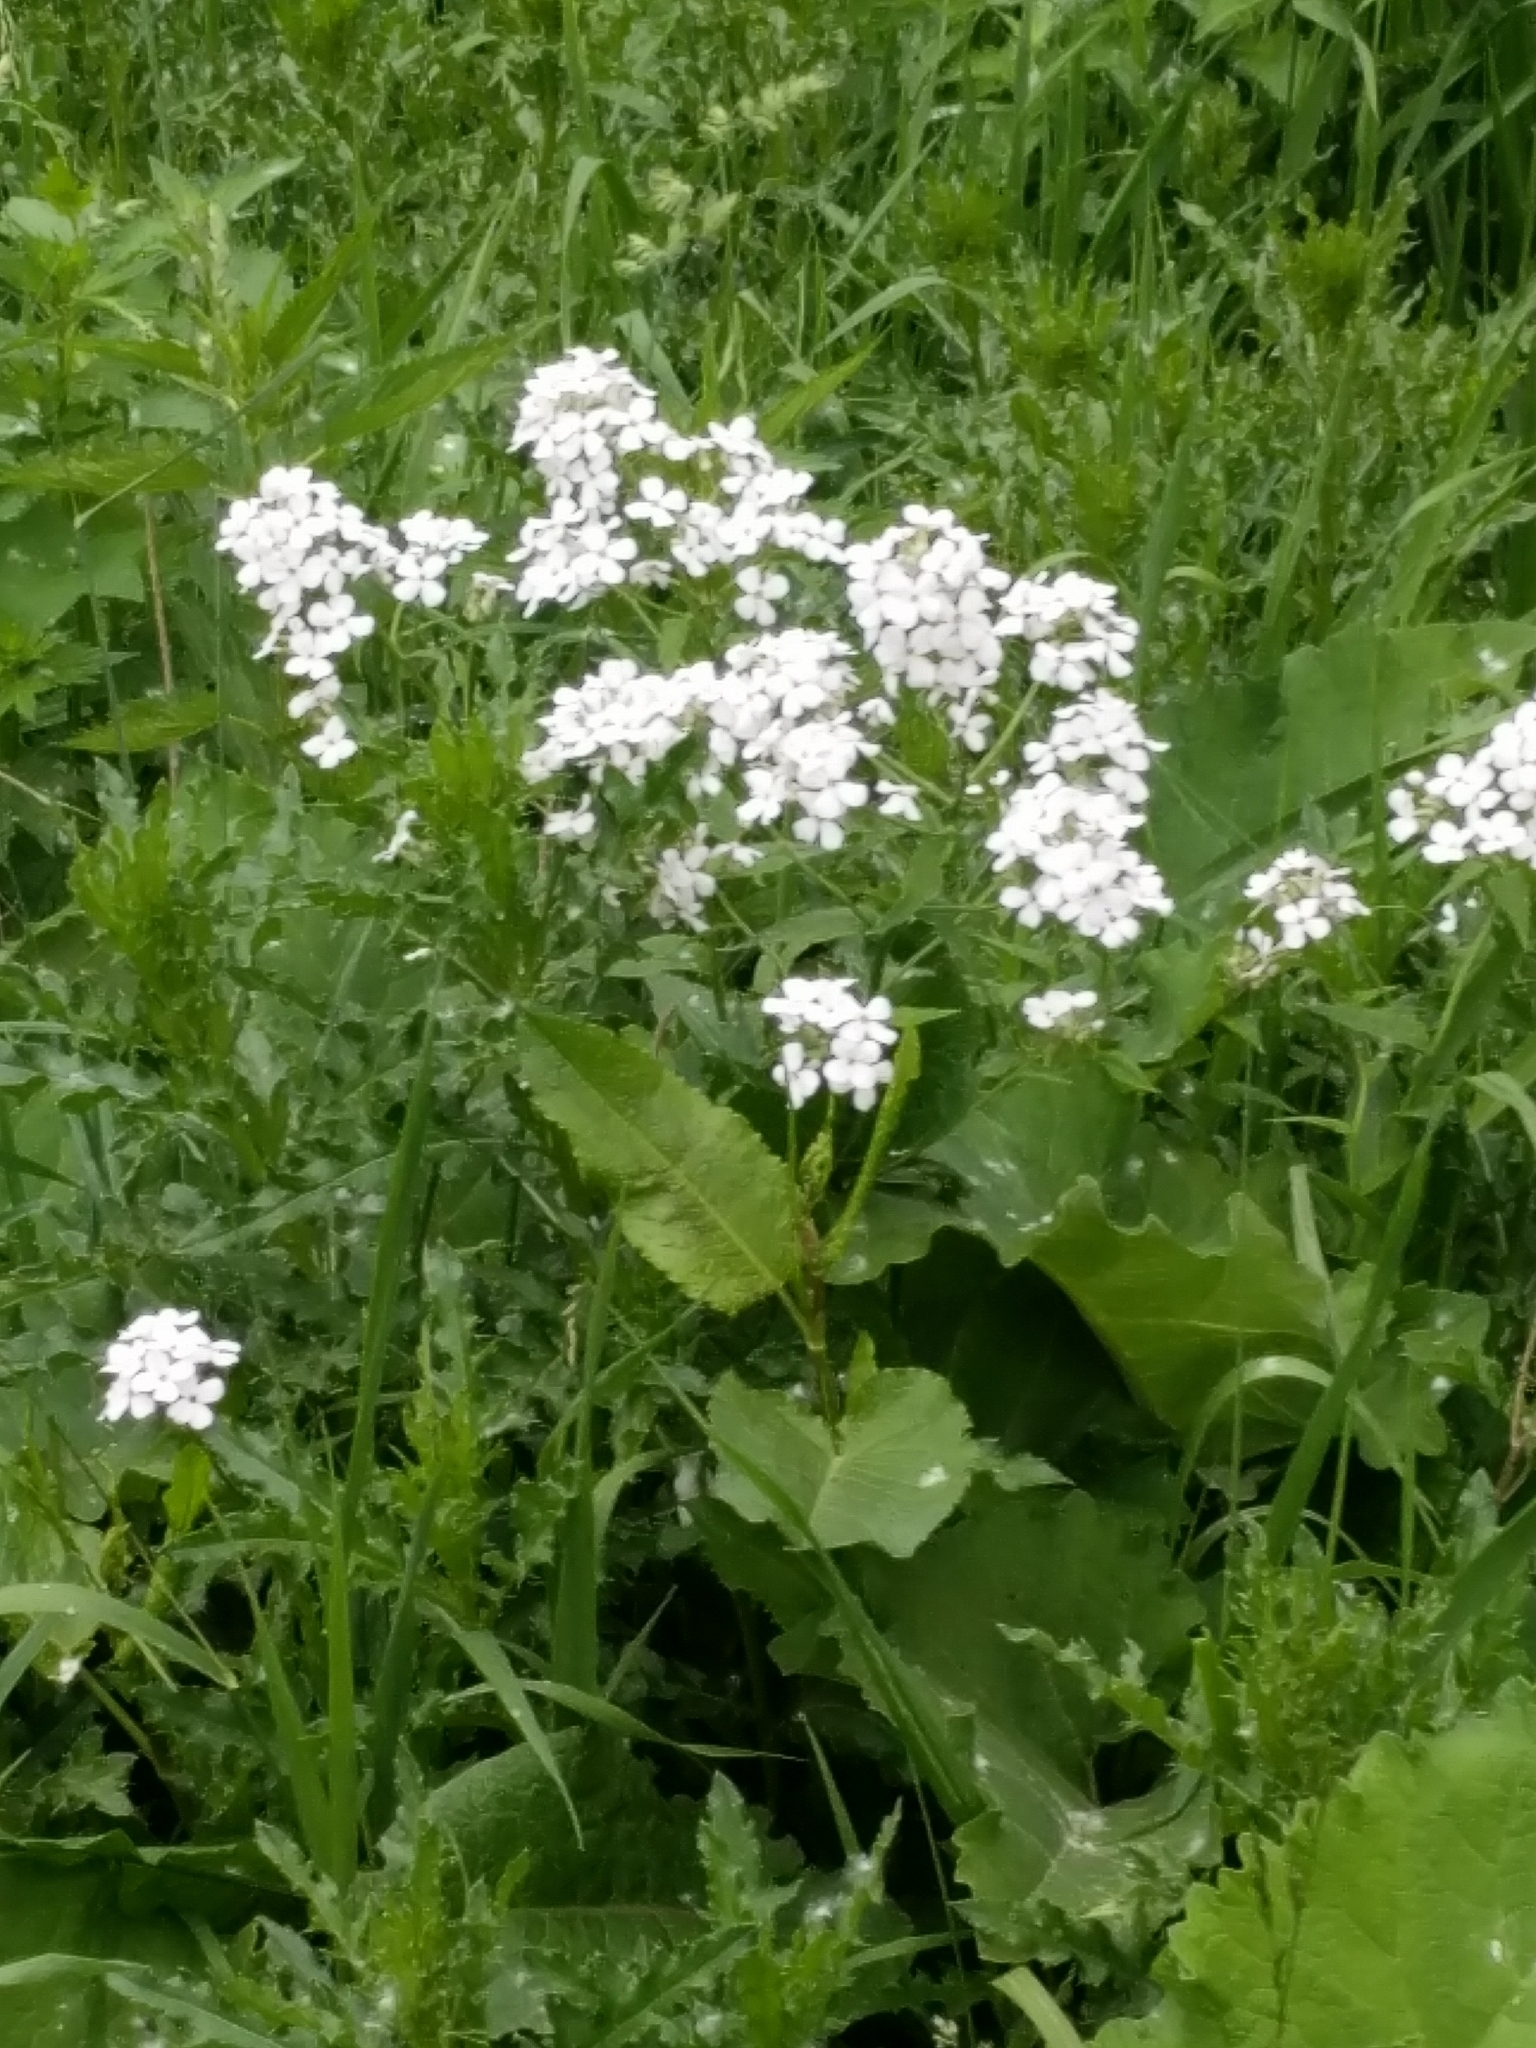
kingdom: Plantae
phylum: Tracheophyta
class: Magnoliopsida
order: Brassicales
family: Brassicaceae
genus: Hesperis
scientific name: Hesperis matronalis
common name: Dame's-violet
